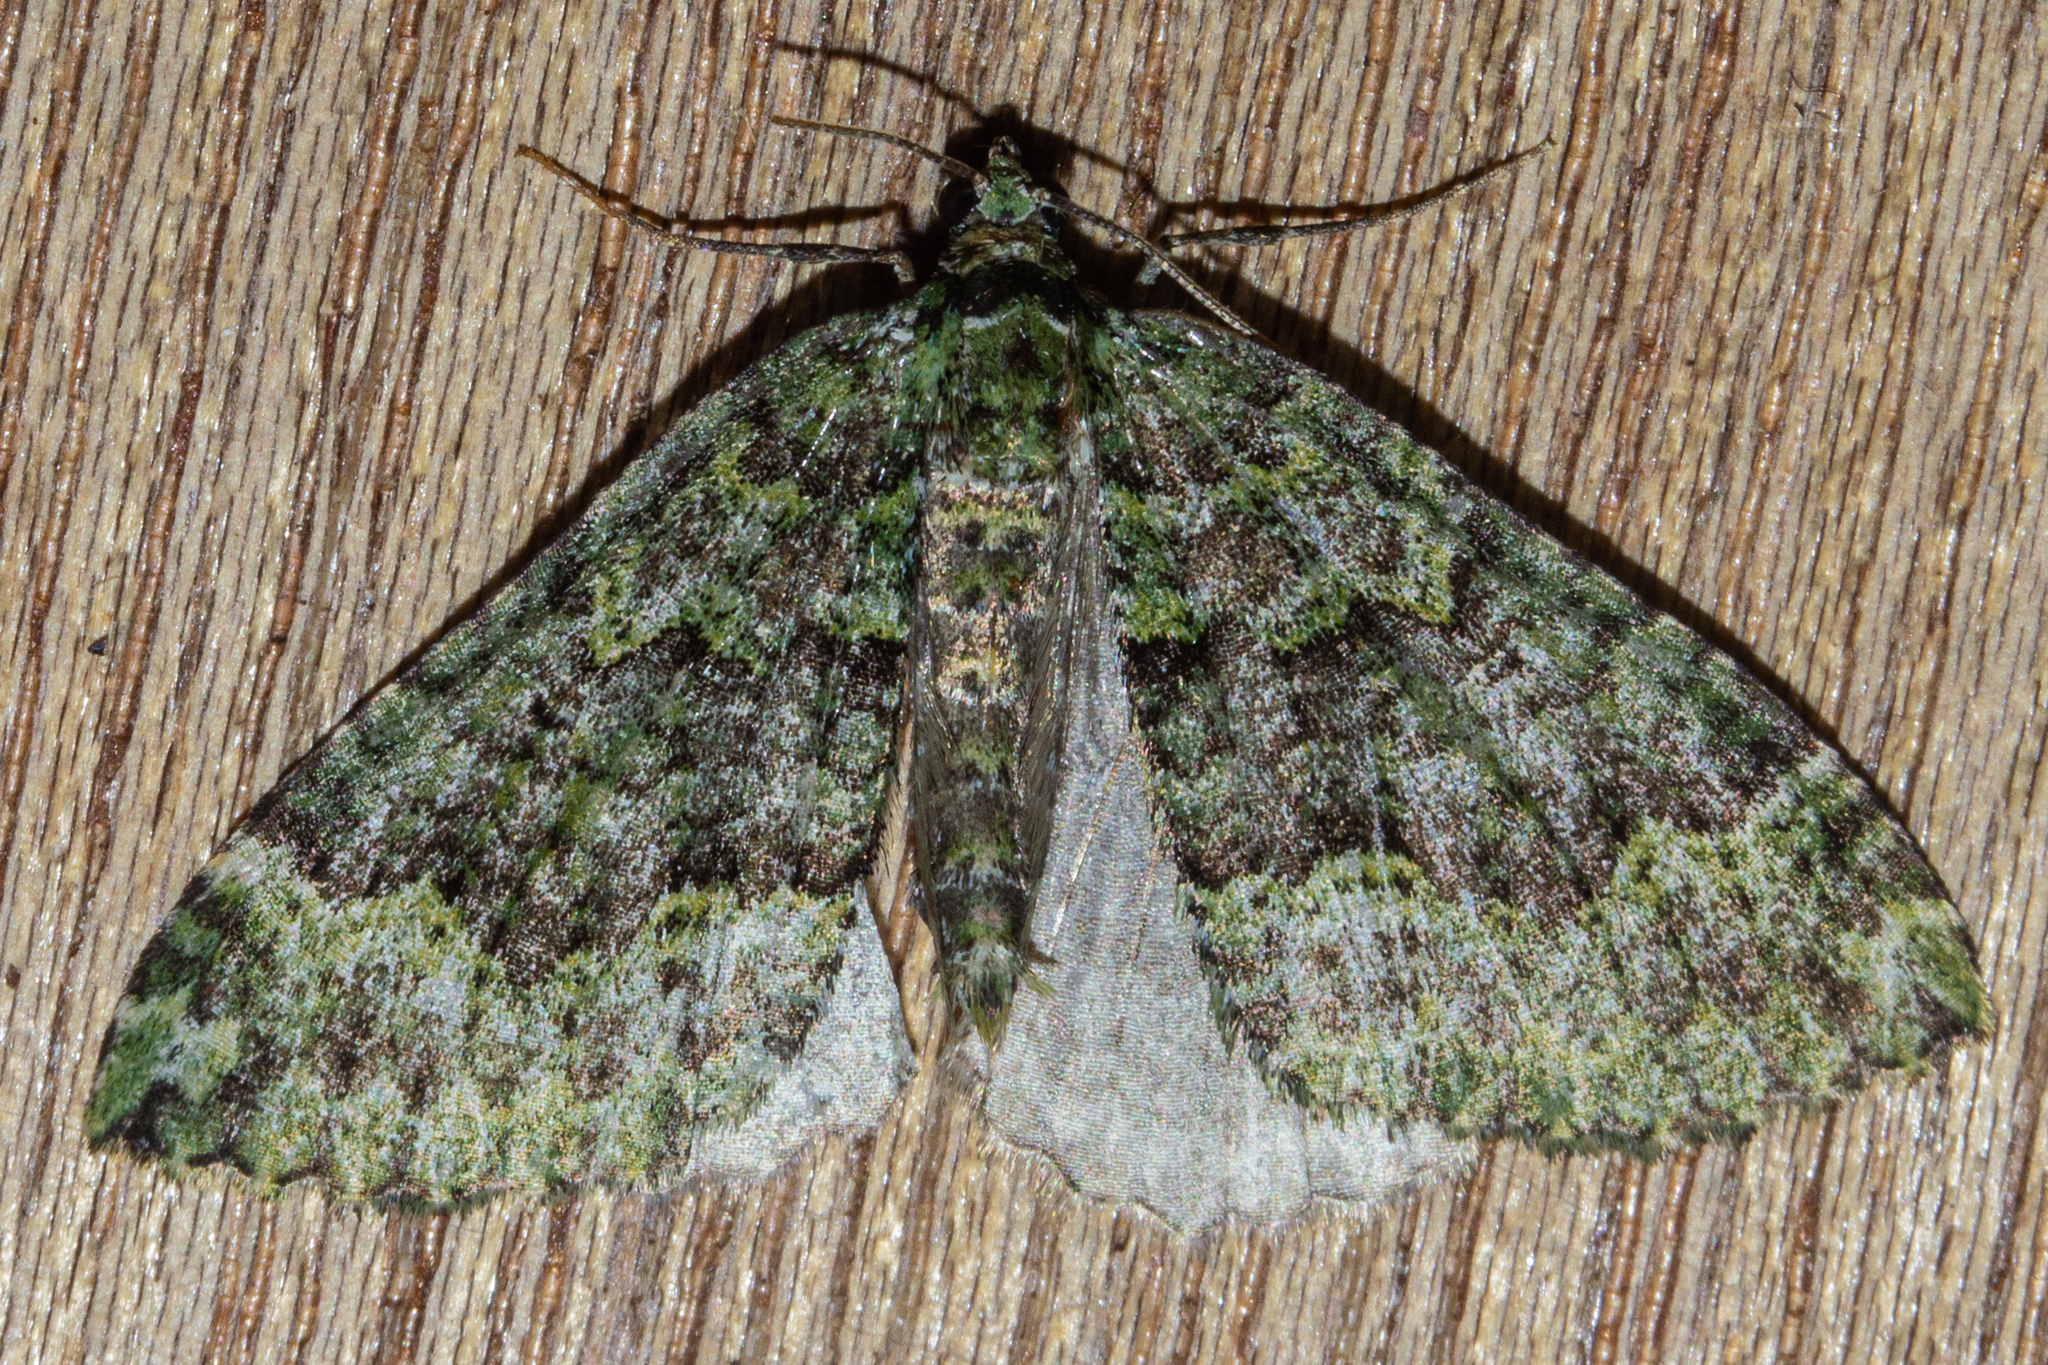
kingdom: Animalia
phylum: Arthropoda
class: Insecta
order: Lepidoptera
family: Geometridae
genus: Austrocidaria
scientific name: Austrocidaria callichlora
